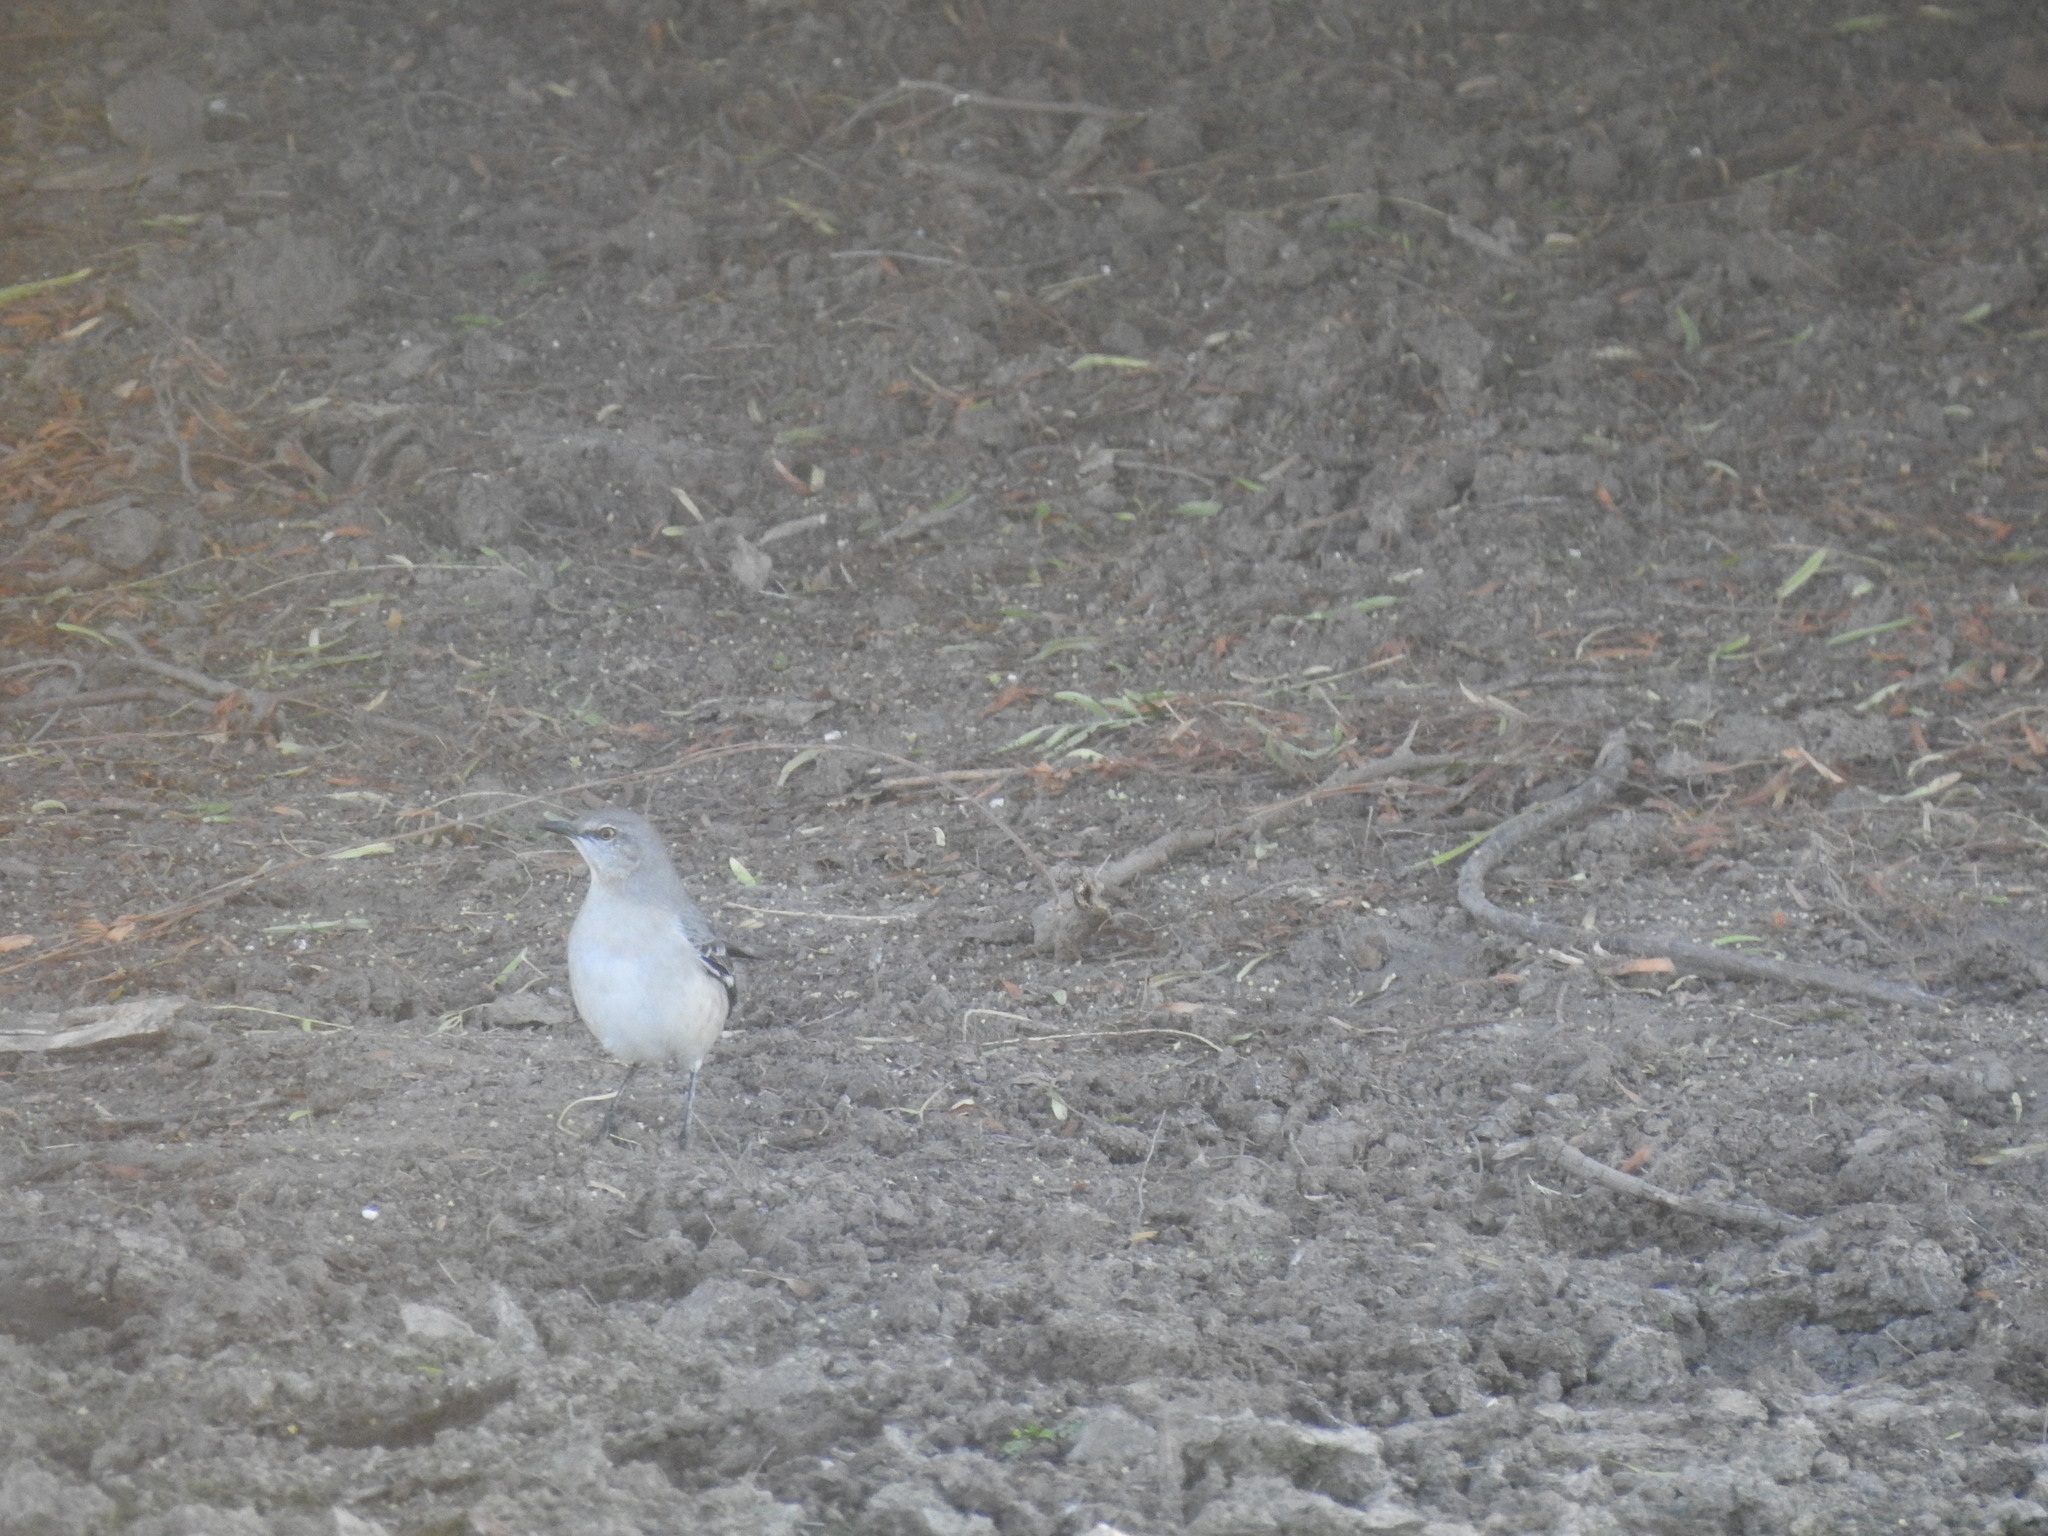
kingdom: Animalia
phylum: Chordata
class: Aves
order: Passeriformes
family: Mimidae
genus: Mimus
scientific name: Mimus polyglottos
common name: Northern mockingbird
